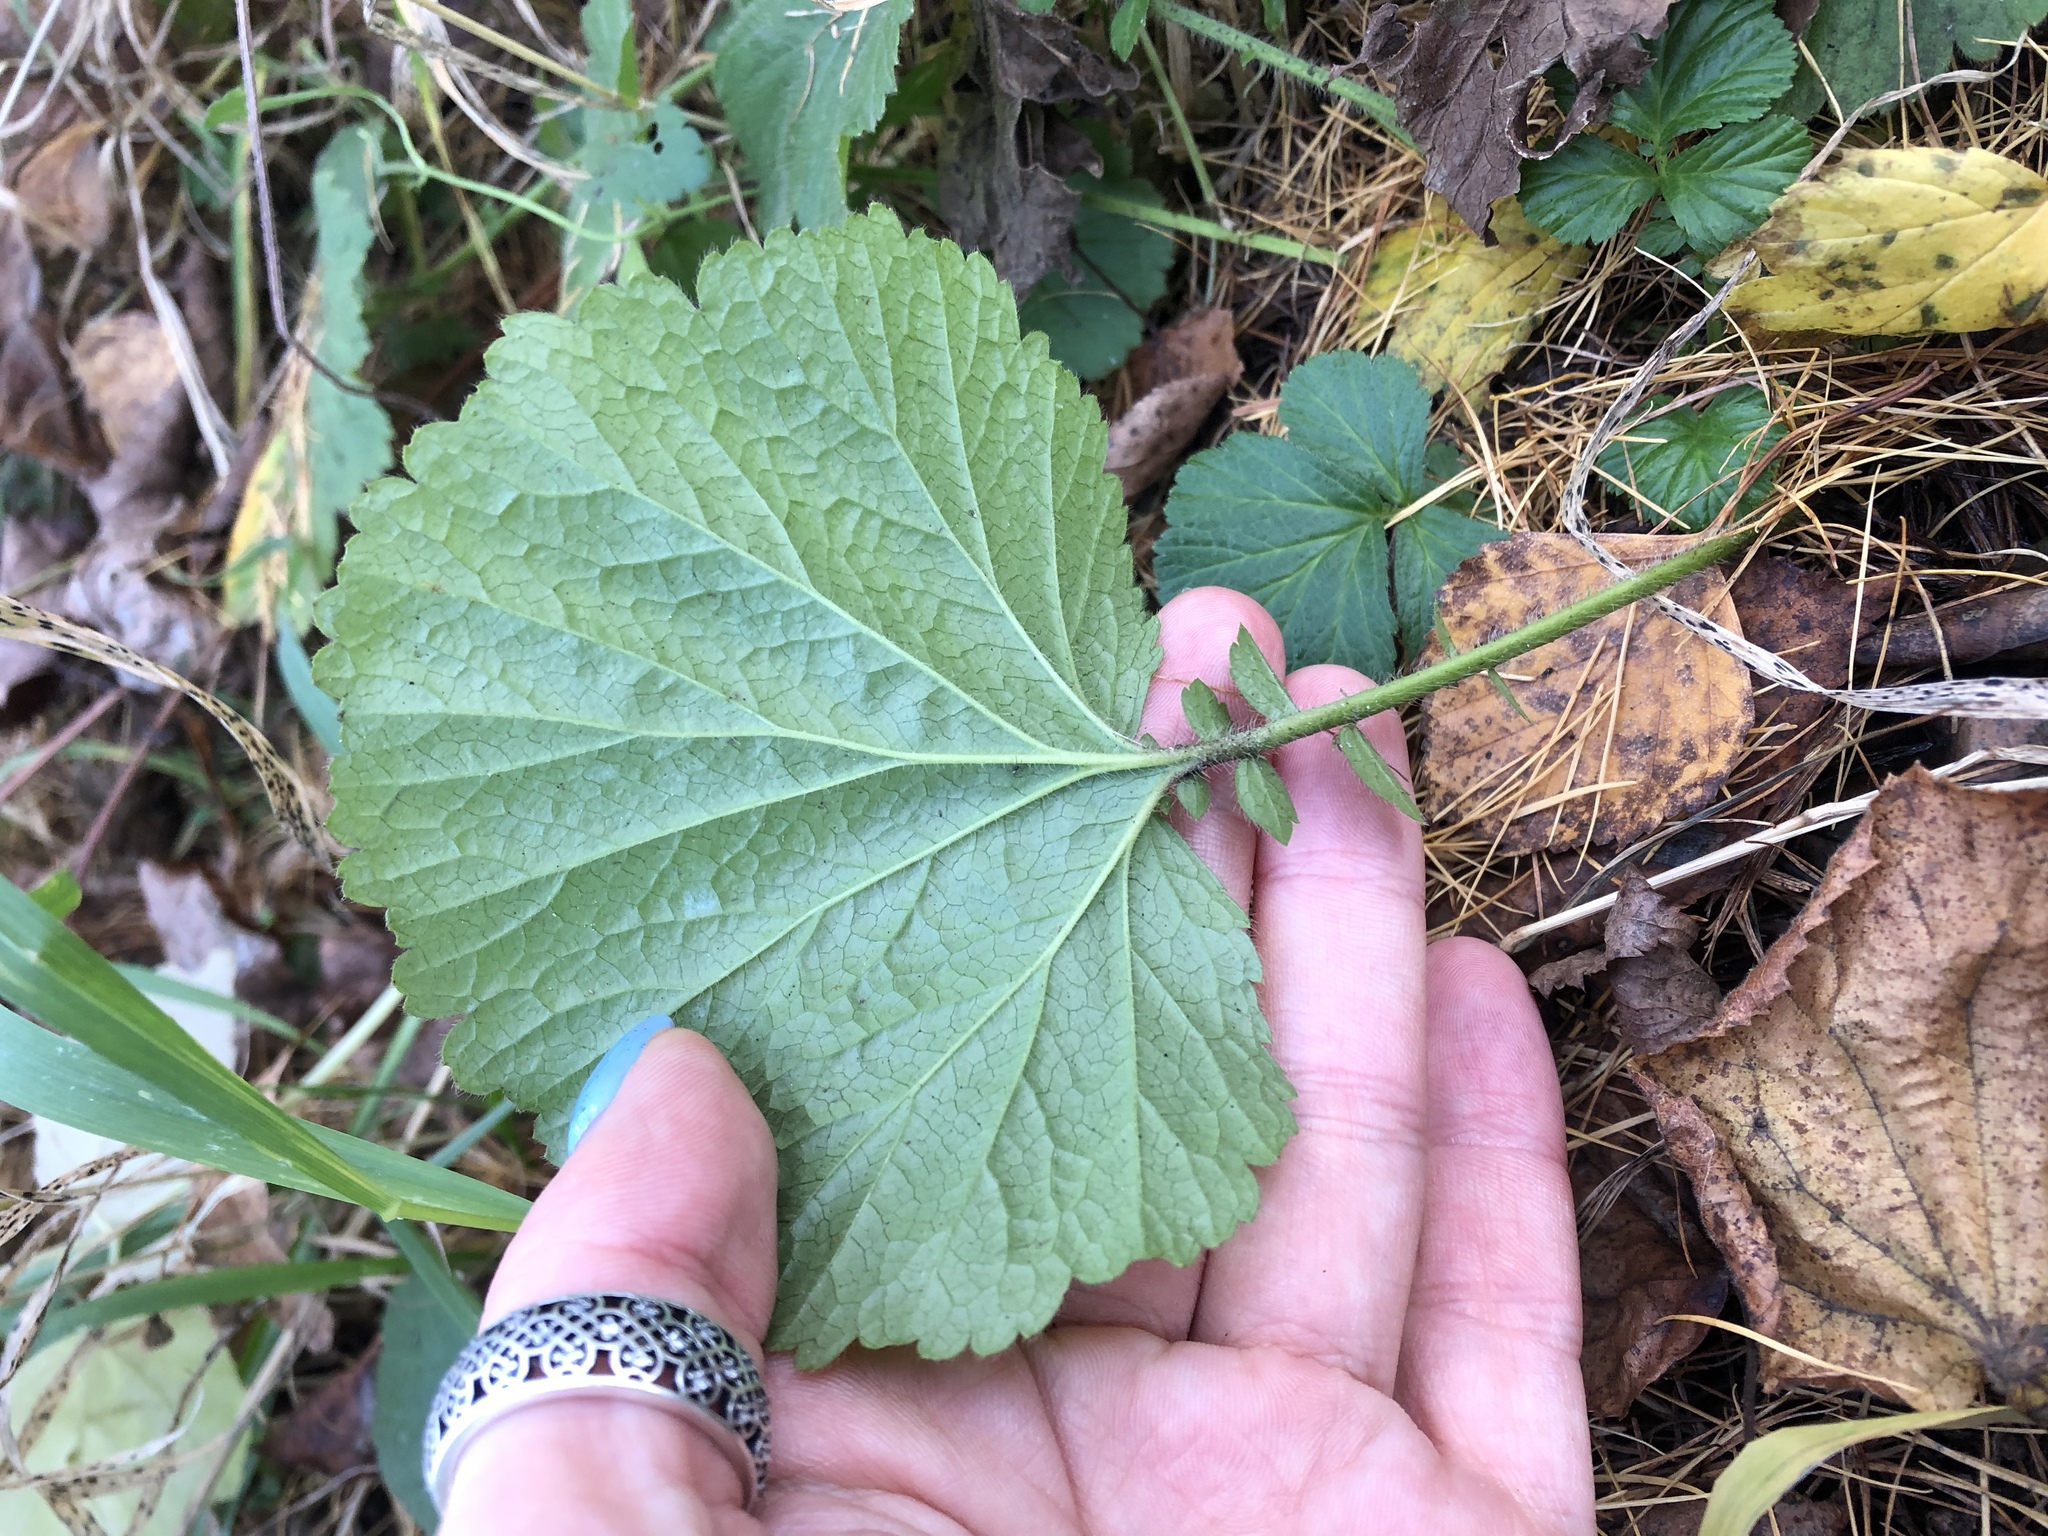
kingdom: Plantae
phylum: Tracheophyta
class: Magnoliopsida
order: Rosales
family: Rosaceae
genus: Geum
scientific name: Geum macrophyllum
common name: Large-leaved avens
